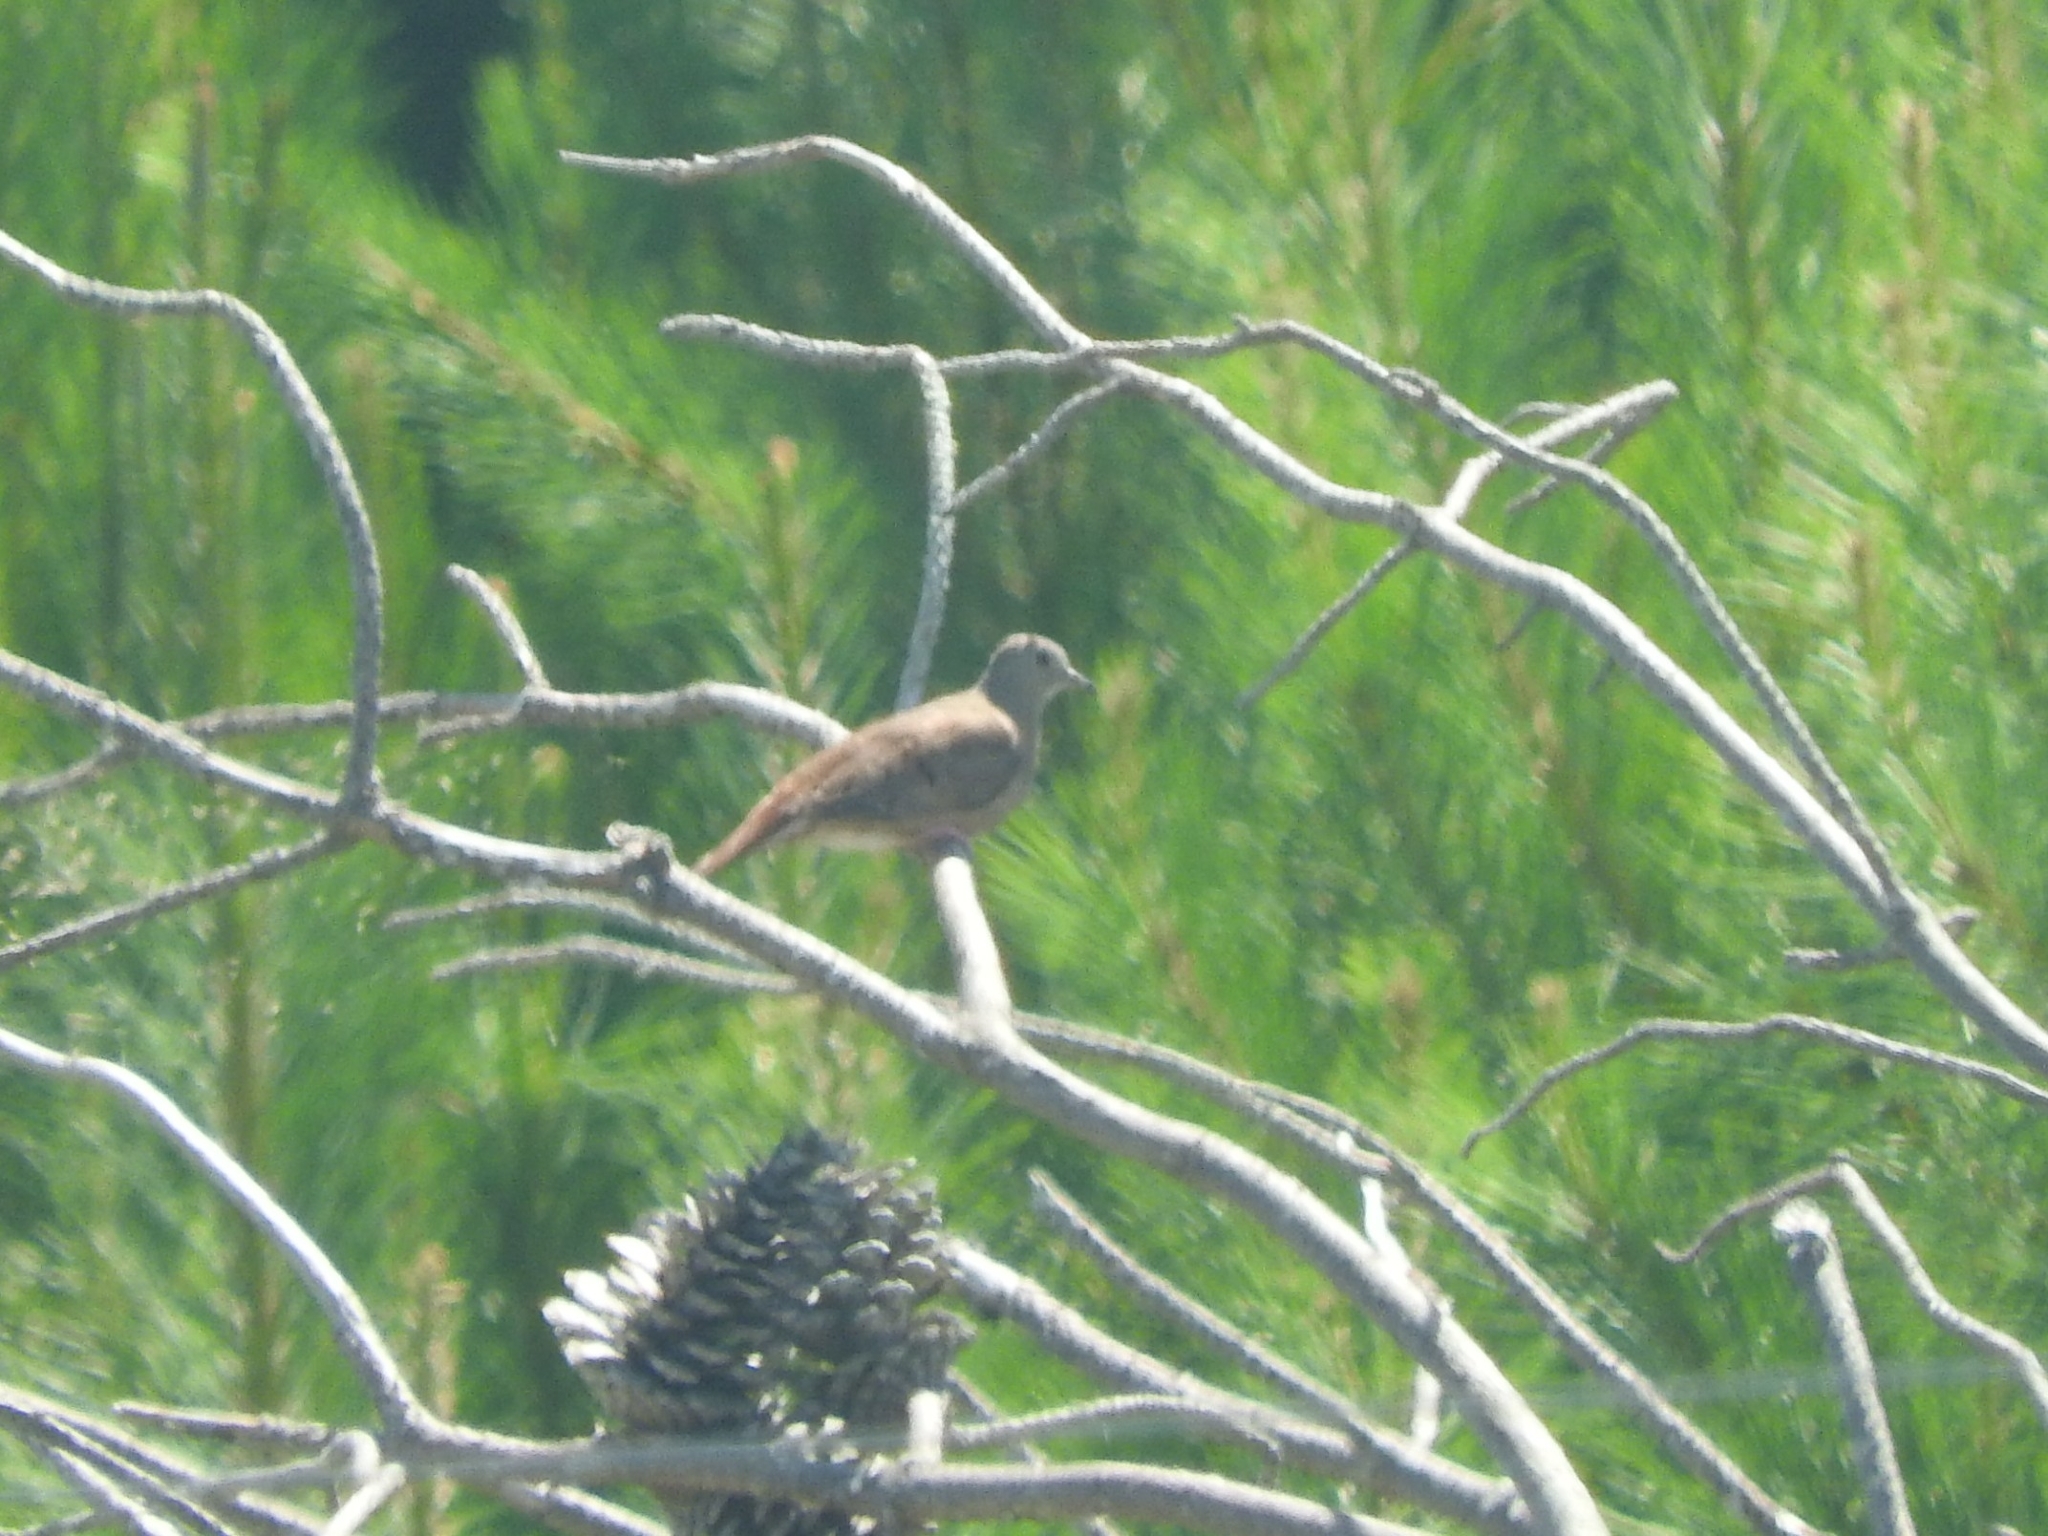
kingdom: Animalia
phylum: Chordata
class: Aves
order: Columbiformes
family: Columbidae
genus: Columbina
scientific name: Columbina talpacoti
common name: Ruddy ground dove
